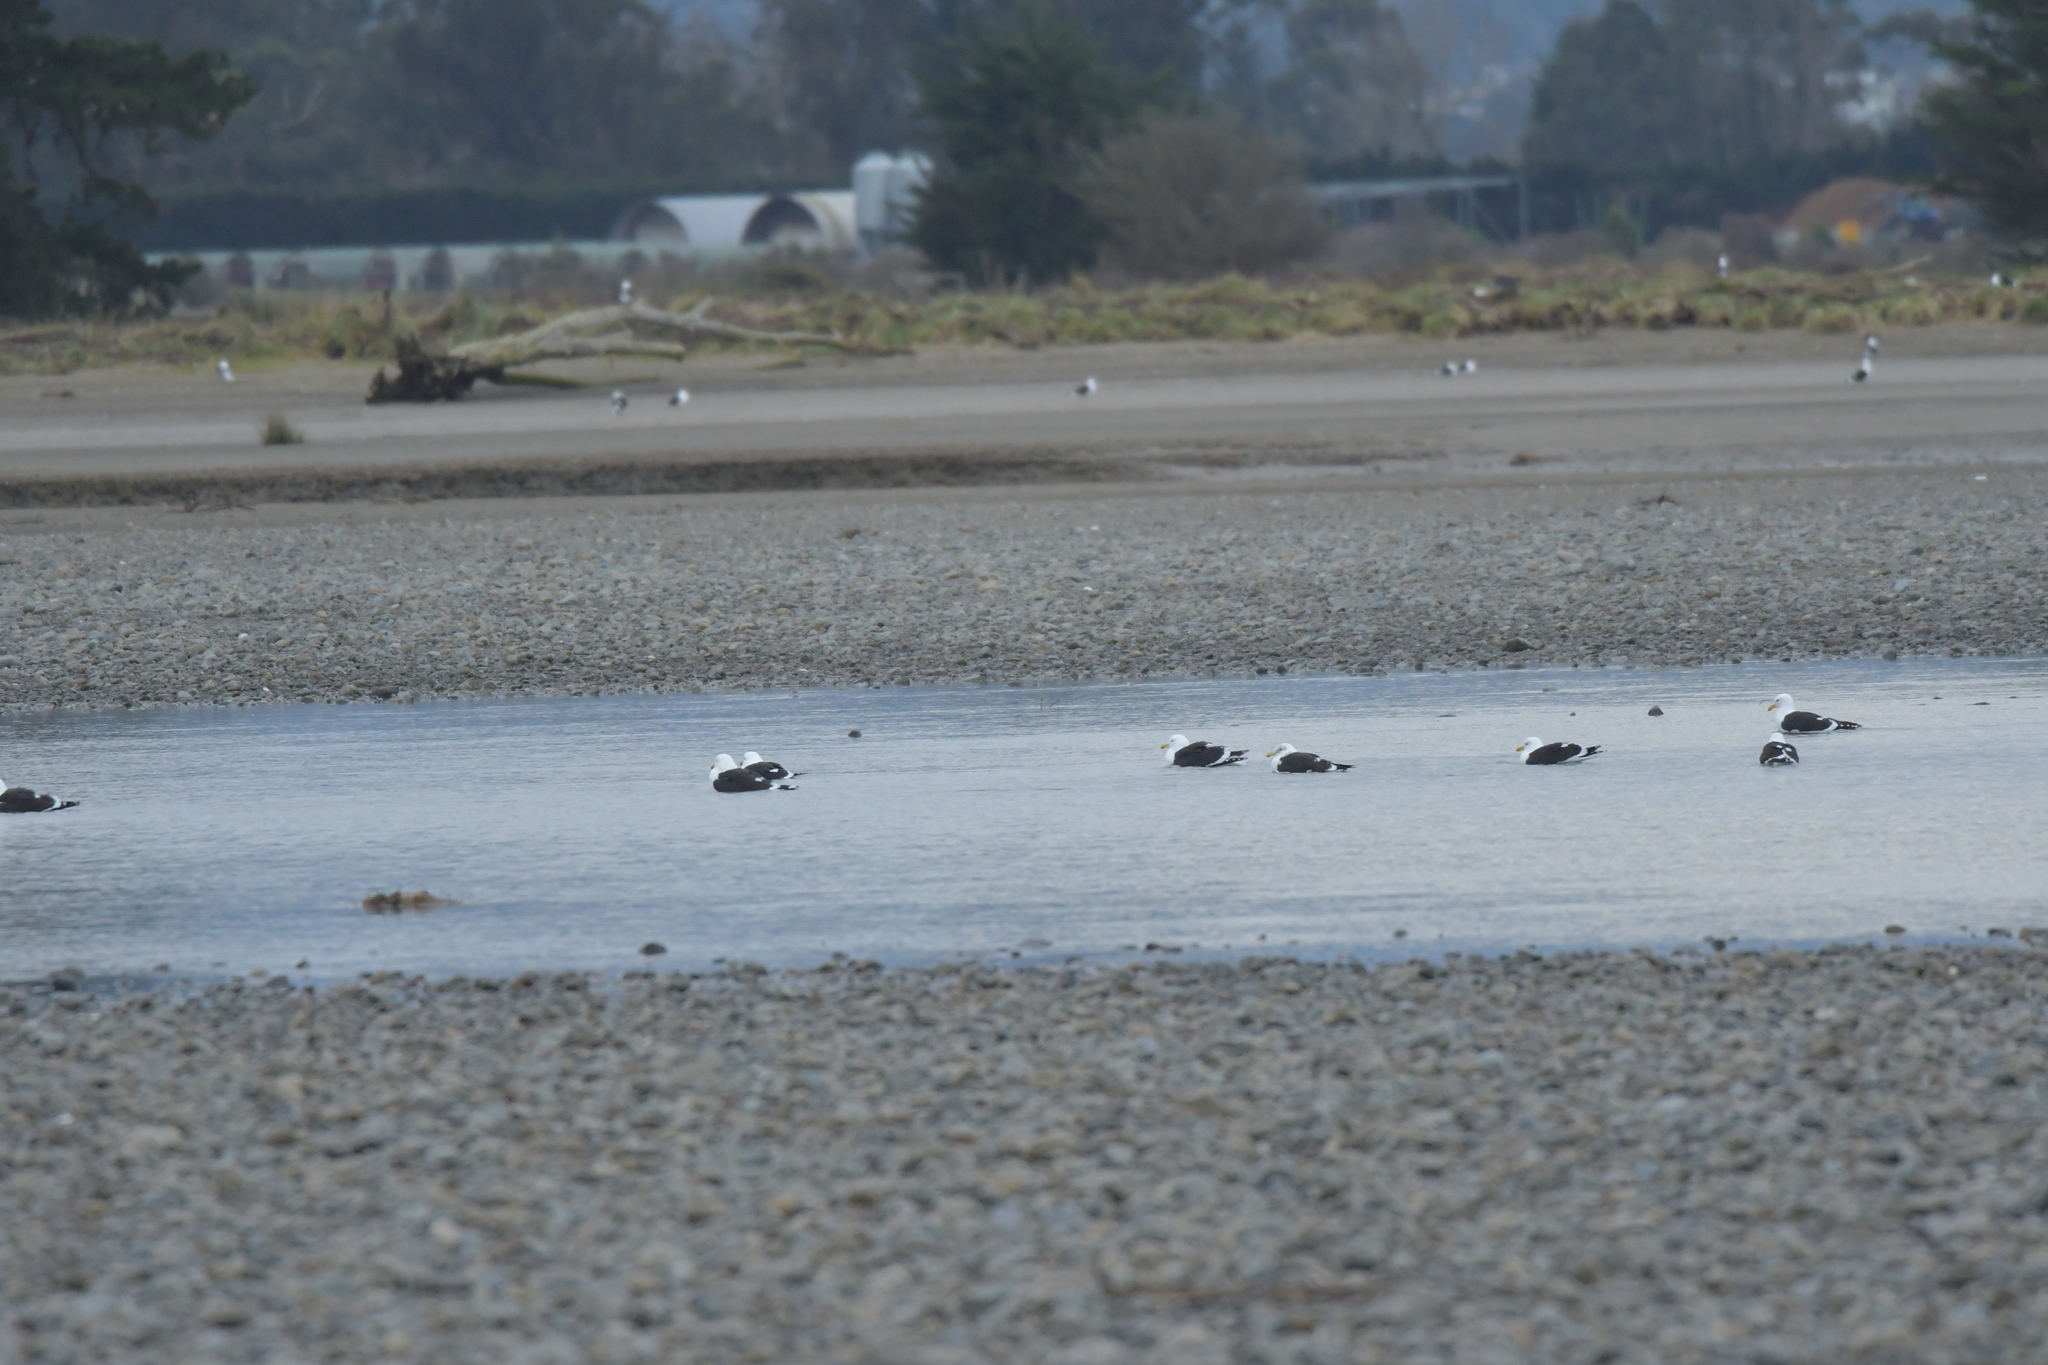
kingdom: Animalia
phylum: Chordata
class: Aves
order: Charadriiformes
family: Laridae
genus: Larus
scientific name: Larus dominicanus
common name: Kelp gull
